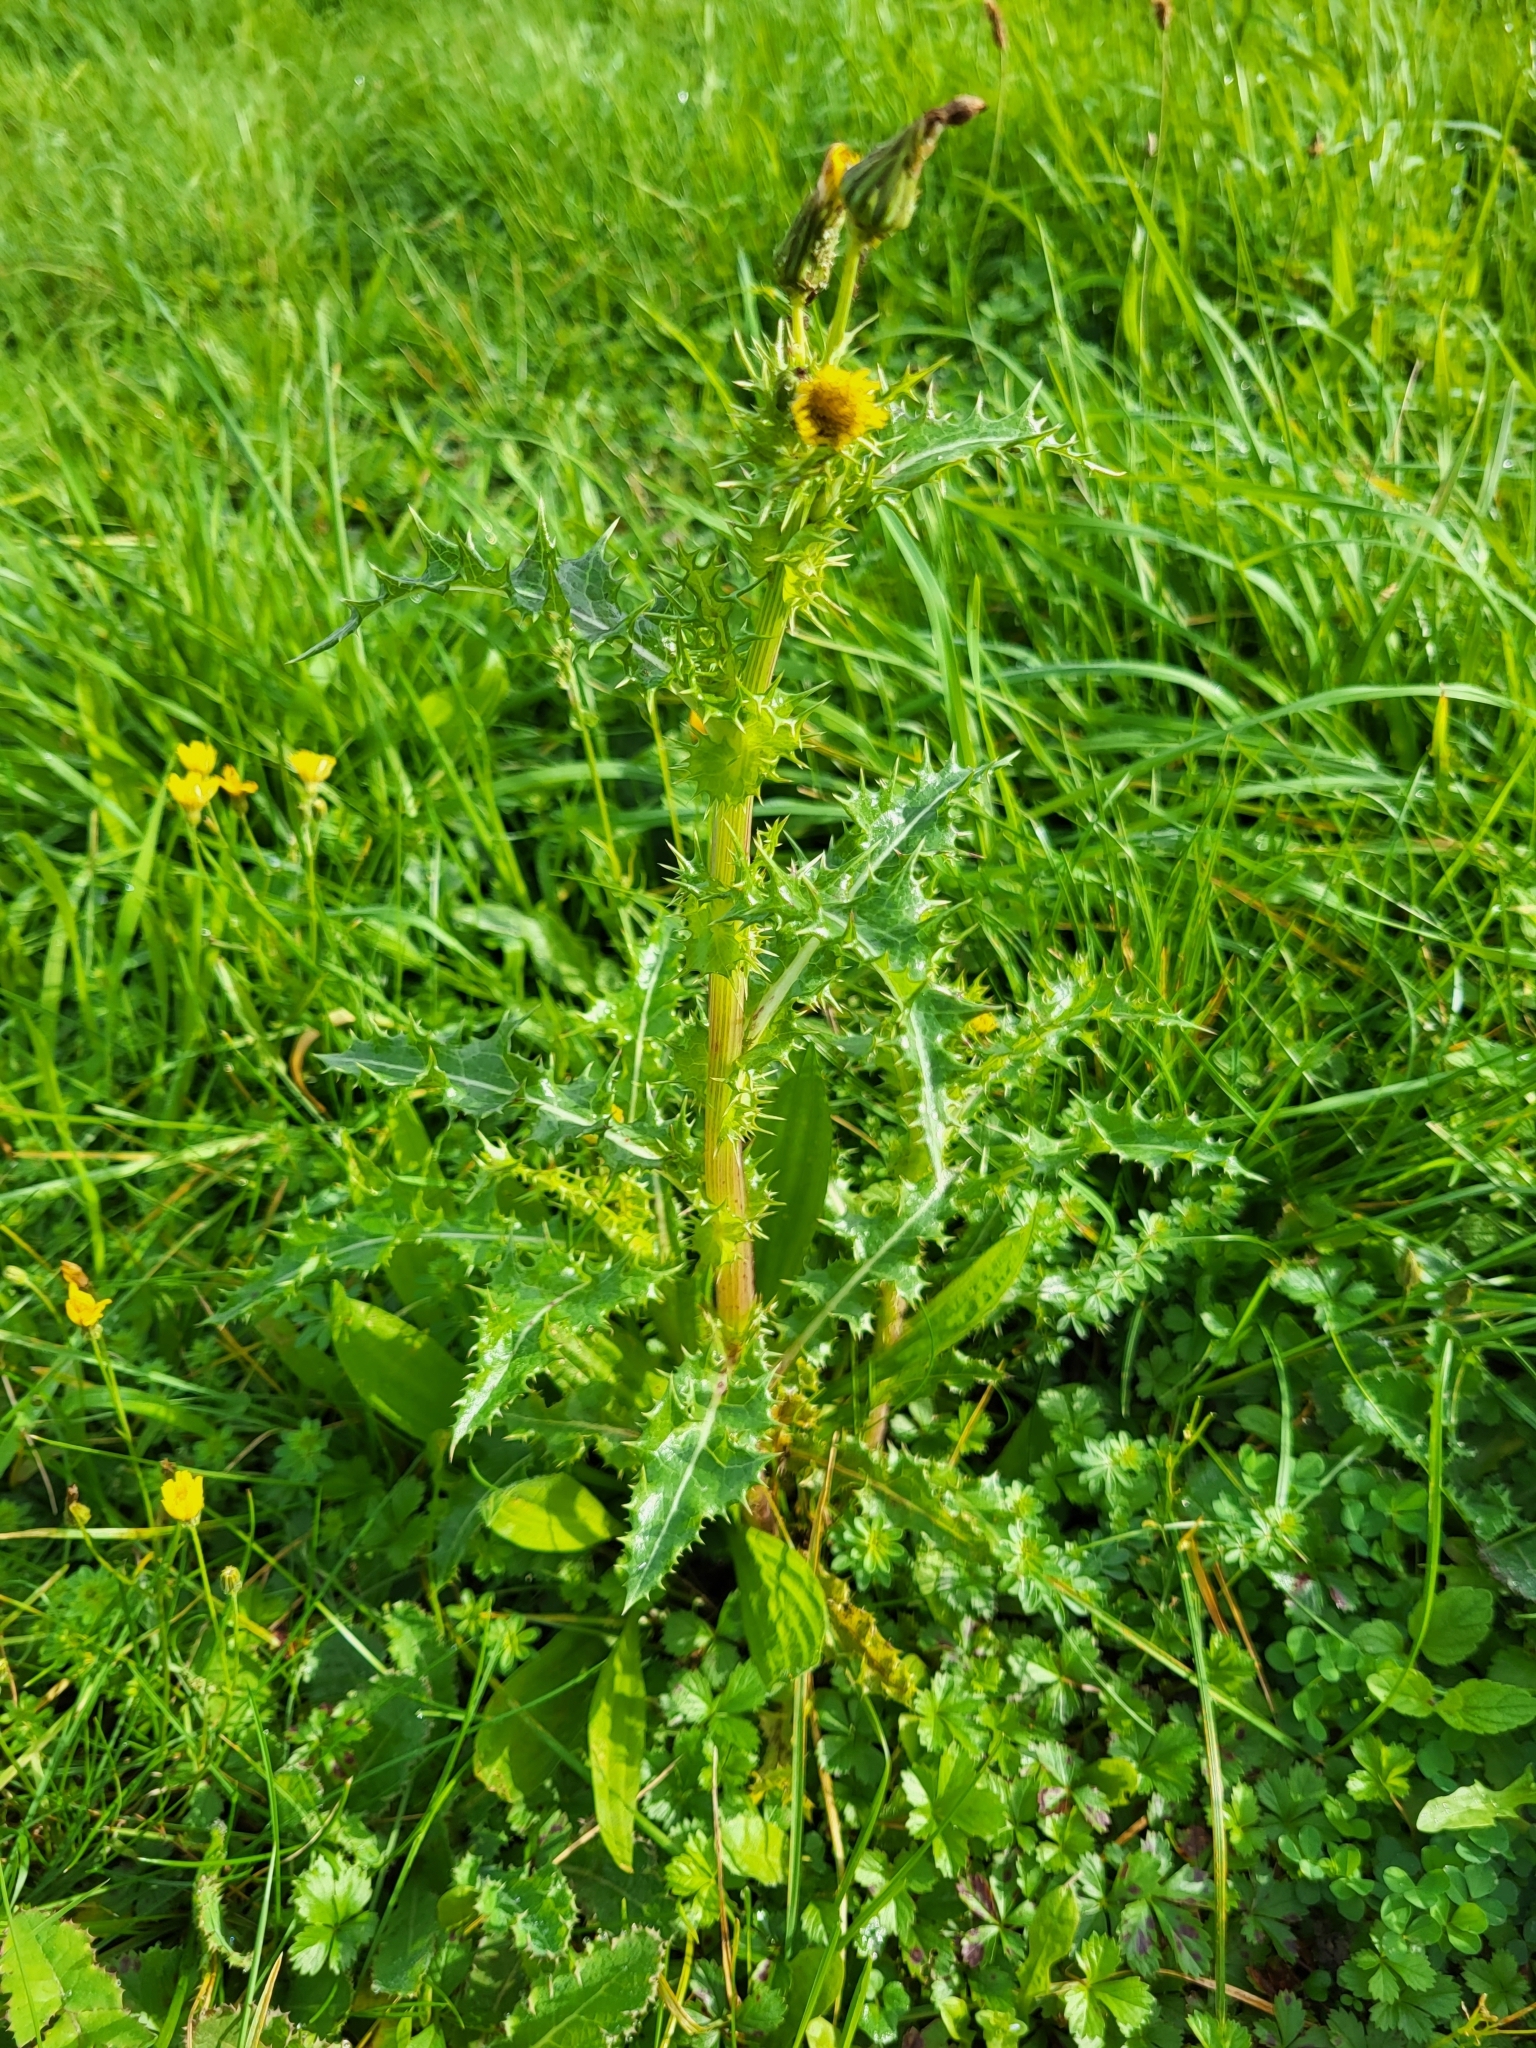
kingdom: Plantae
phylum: Tracheophyta
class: Magnoliopsida
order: Asterales
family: Asteraceae
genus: Sonchus
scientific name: Sonchus asper
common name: Prickly sow-thistle
